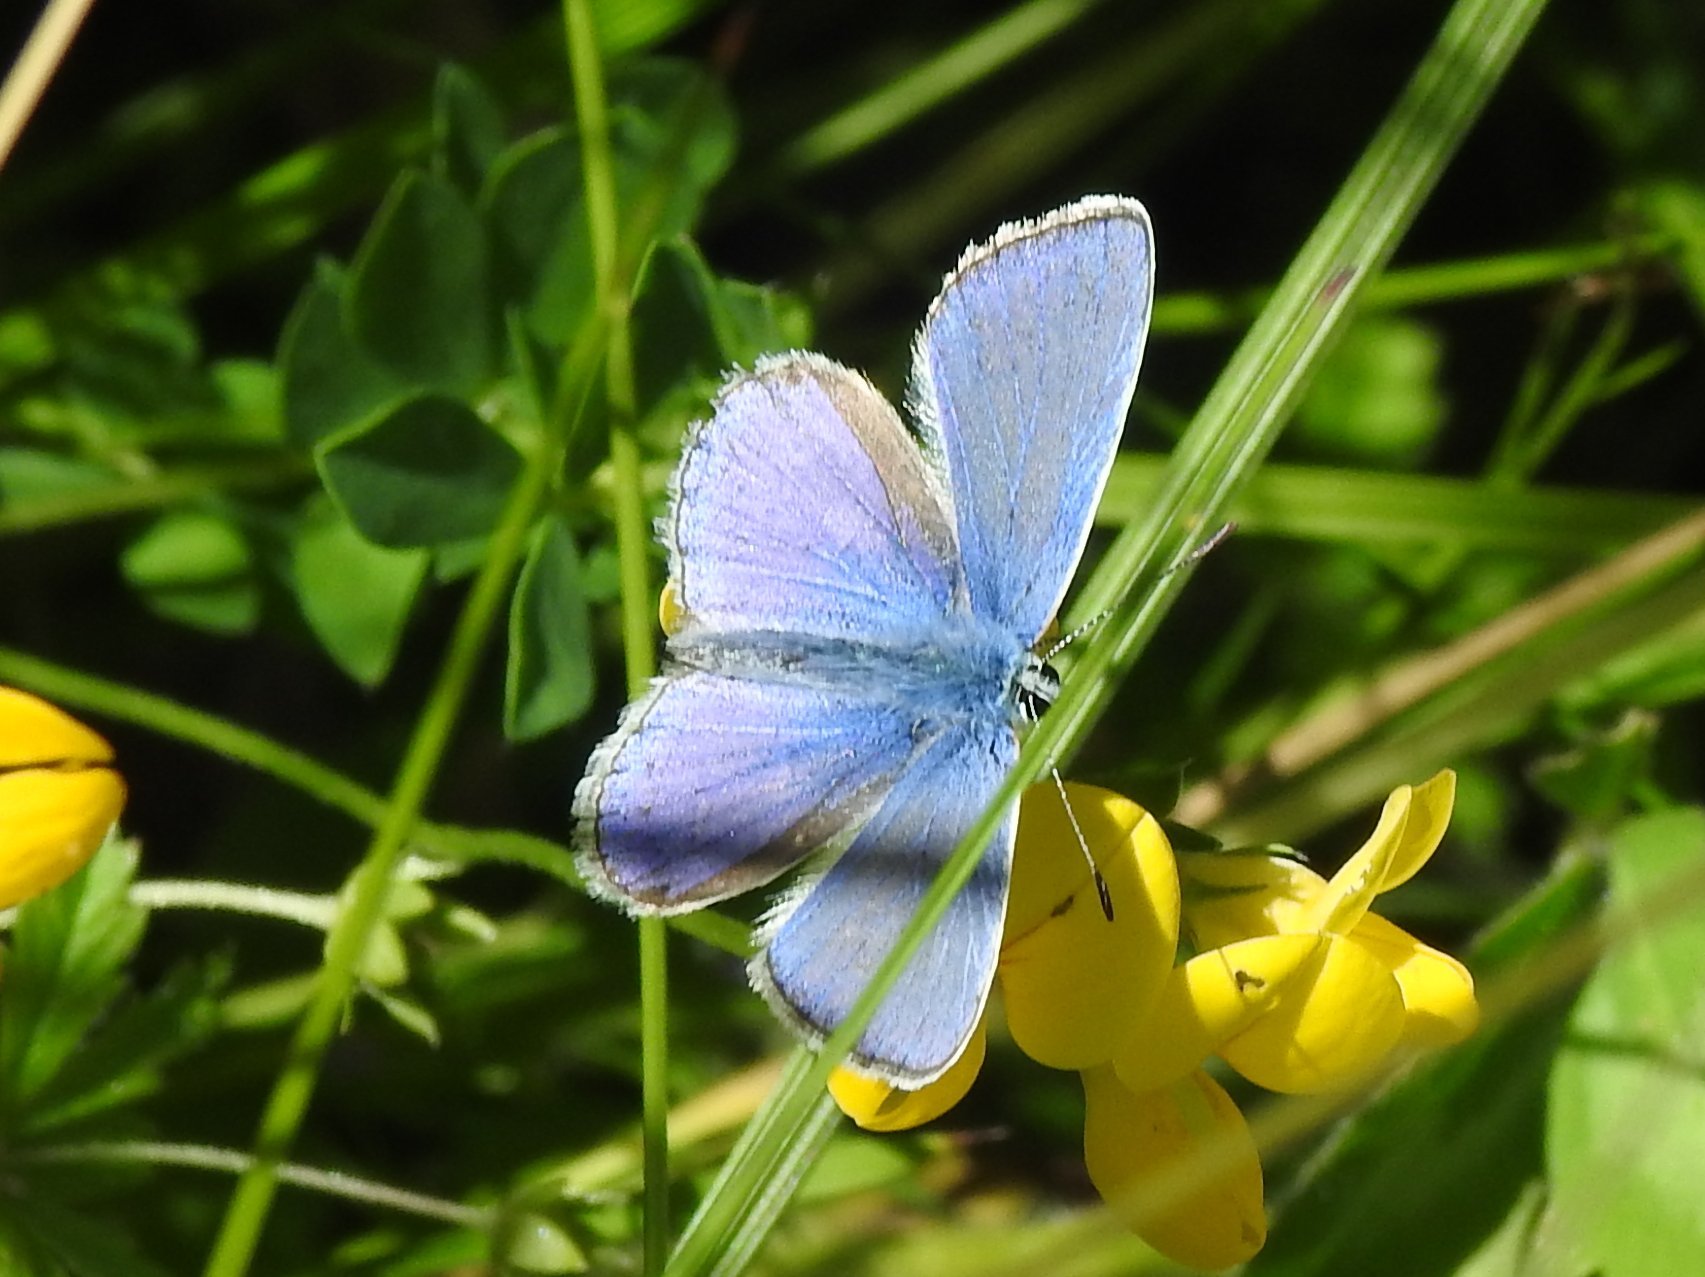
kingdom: Animalia
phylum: Arthropoda
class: Insecta
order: Lepidoptera
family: Lycaenidae
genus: Polyommatus
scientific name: Polyommatus icarus
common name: Common blue
